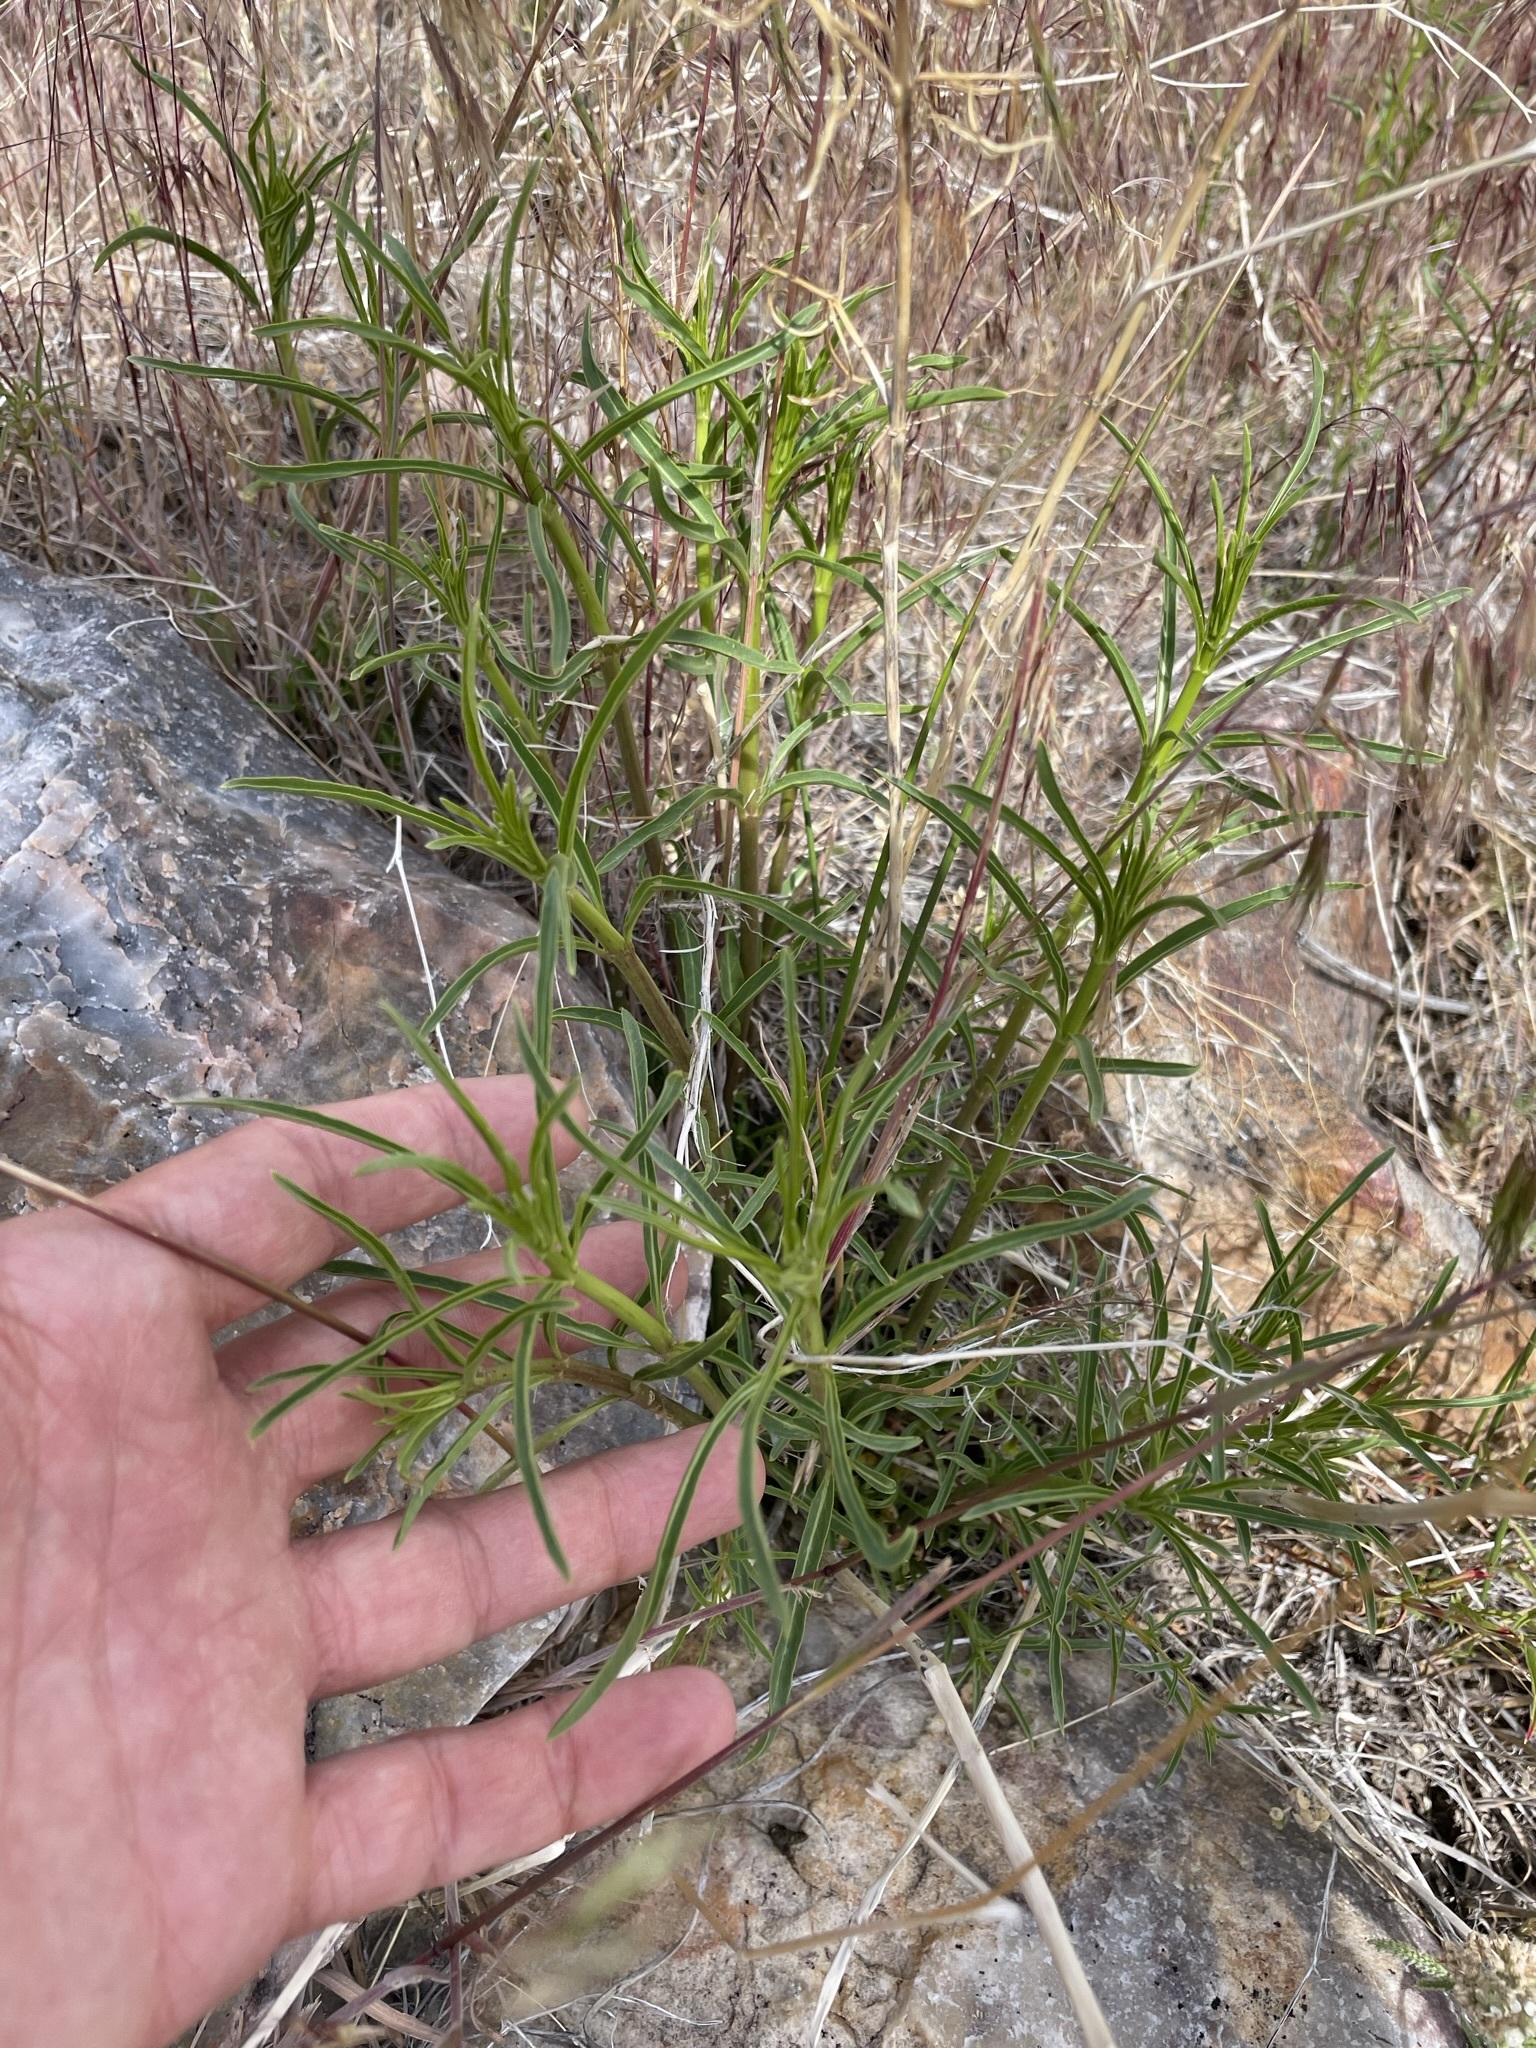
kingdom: Plantae
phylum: Tracheophyta
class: Magnoliopsida
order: Gentianales
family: Apocynaceae
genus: Asclepias
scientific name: Asclepias fascicularis
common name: Mexican milkweed
